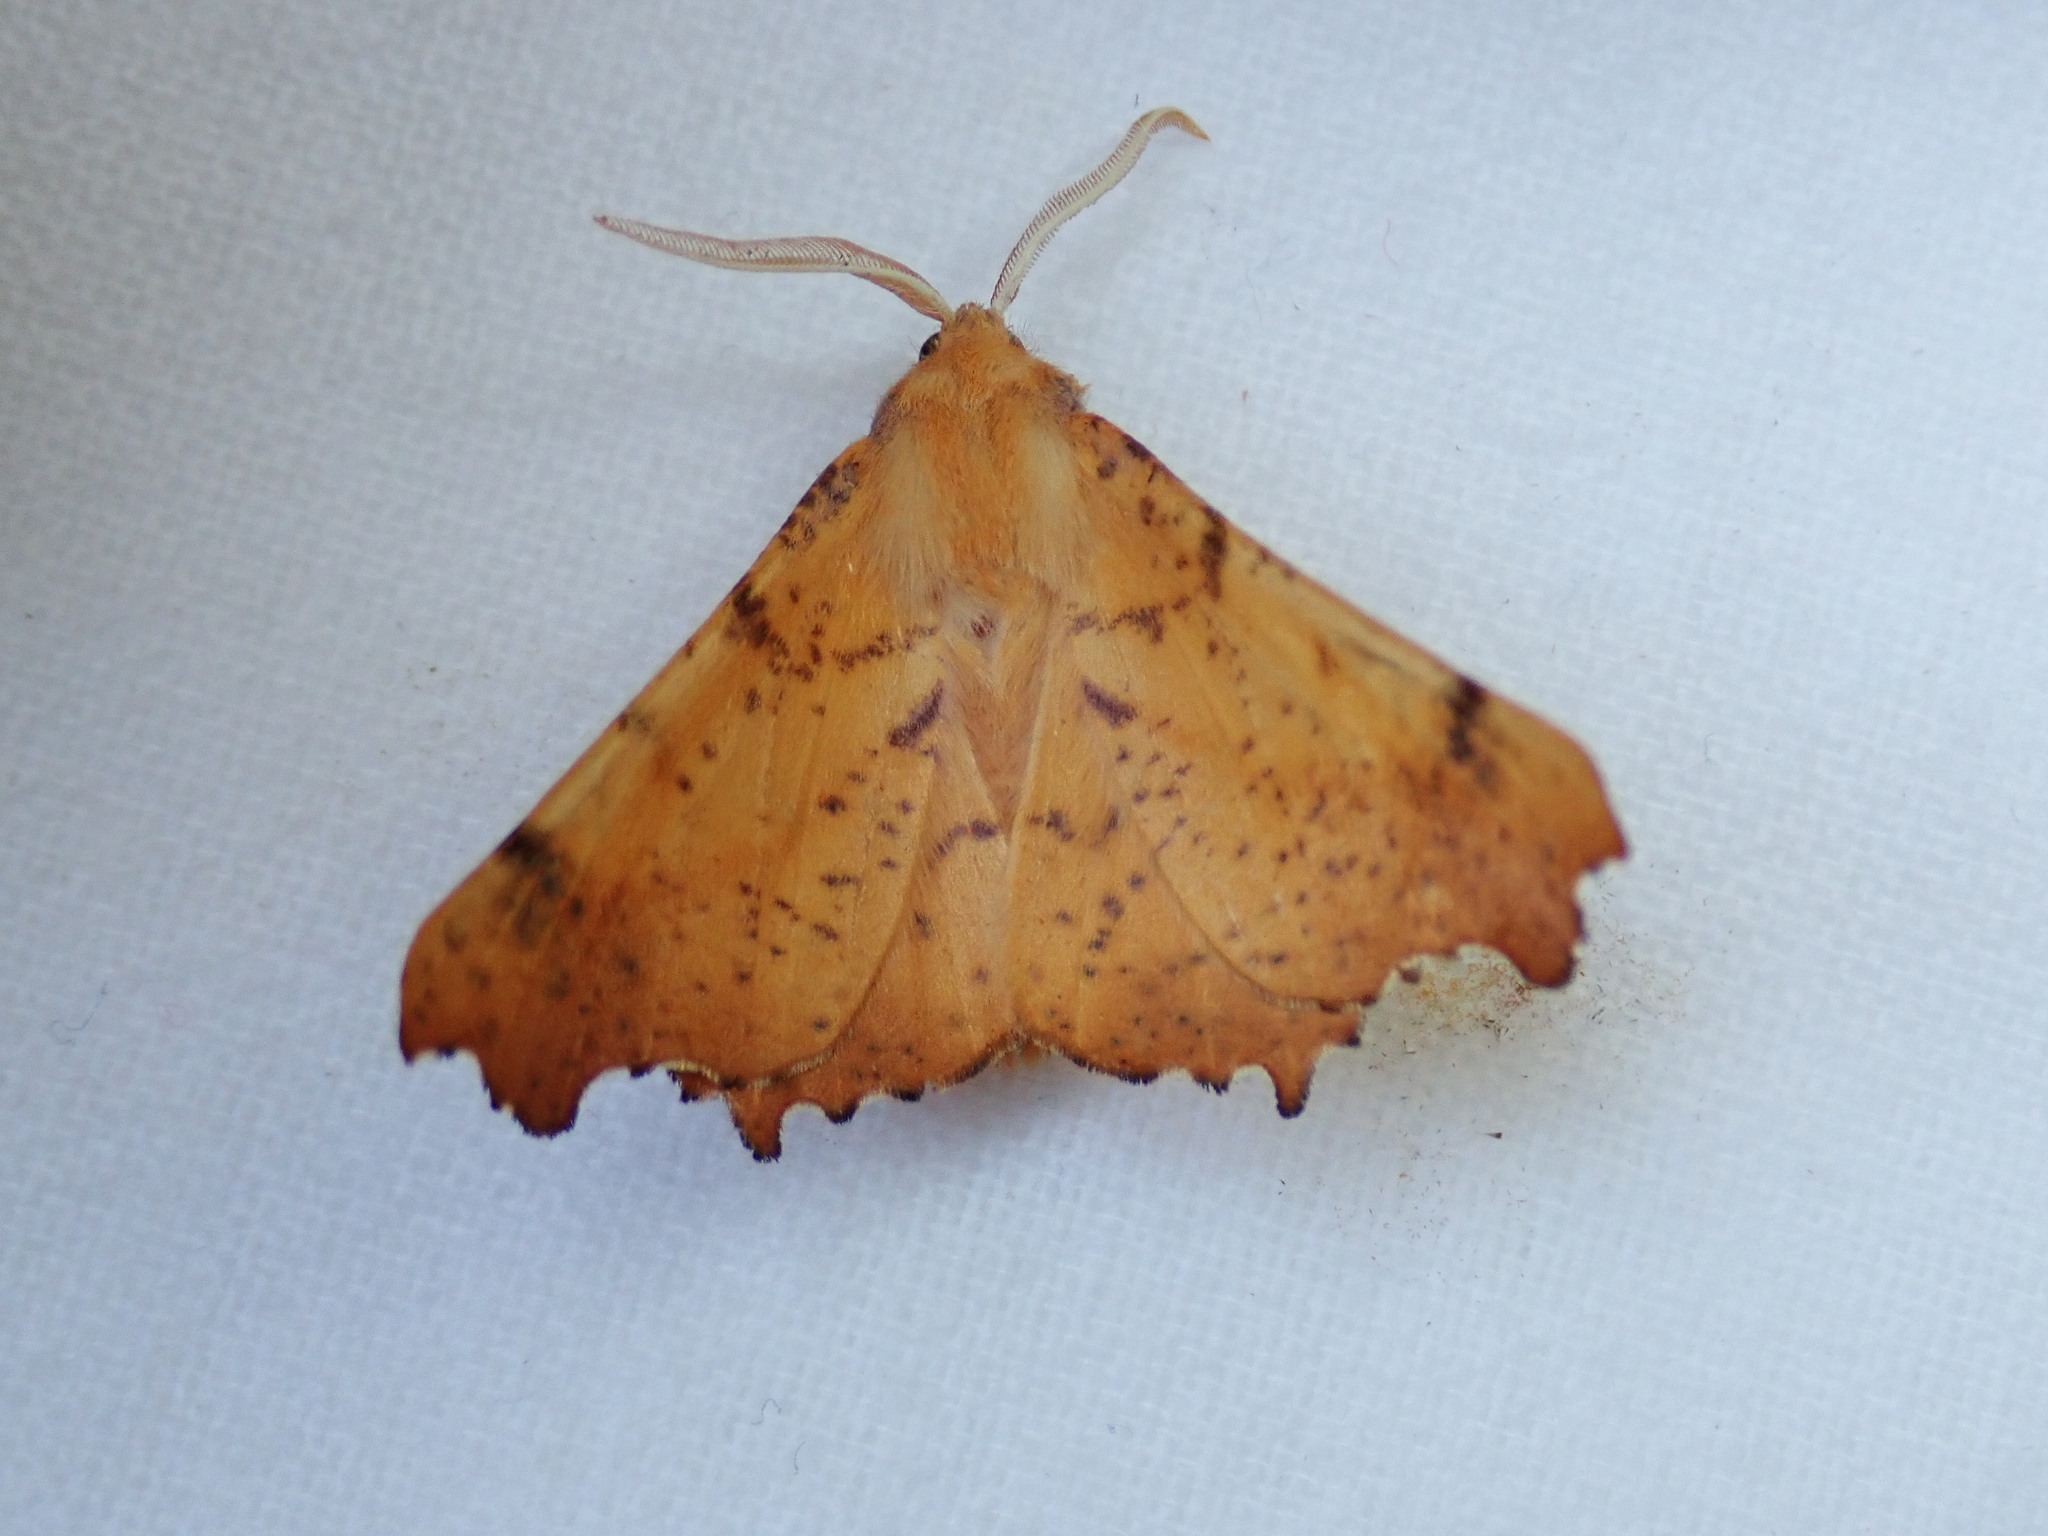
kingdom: Animalia
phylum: Arthropoda
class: Insecta
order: Lepidoptera
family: Geometridae
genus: Ennomos
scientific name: Ennomos magnaria
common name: Maple spanworm
